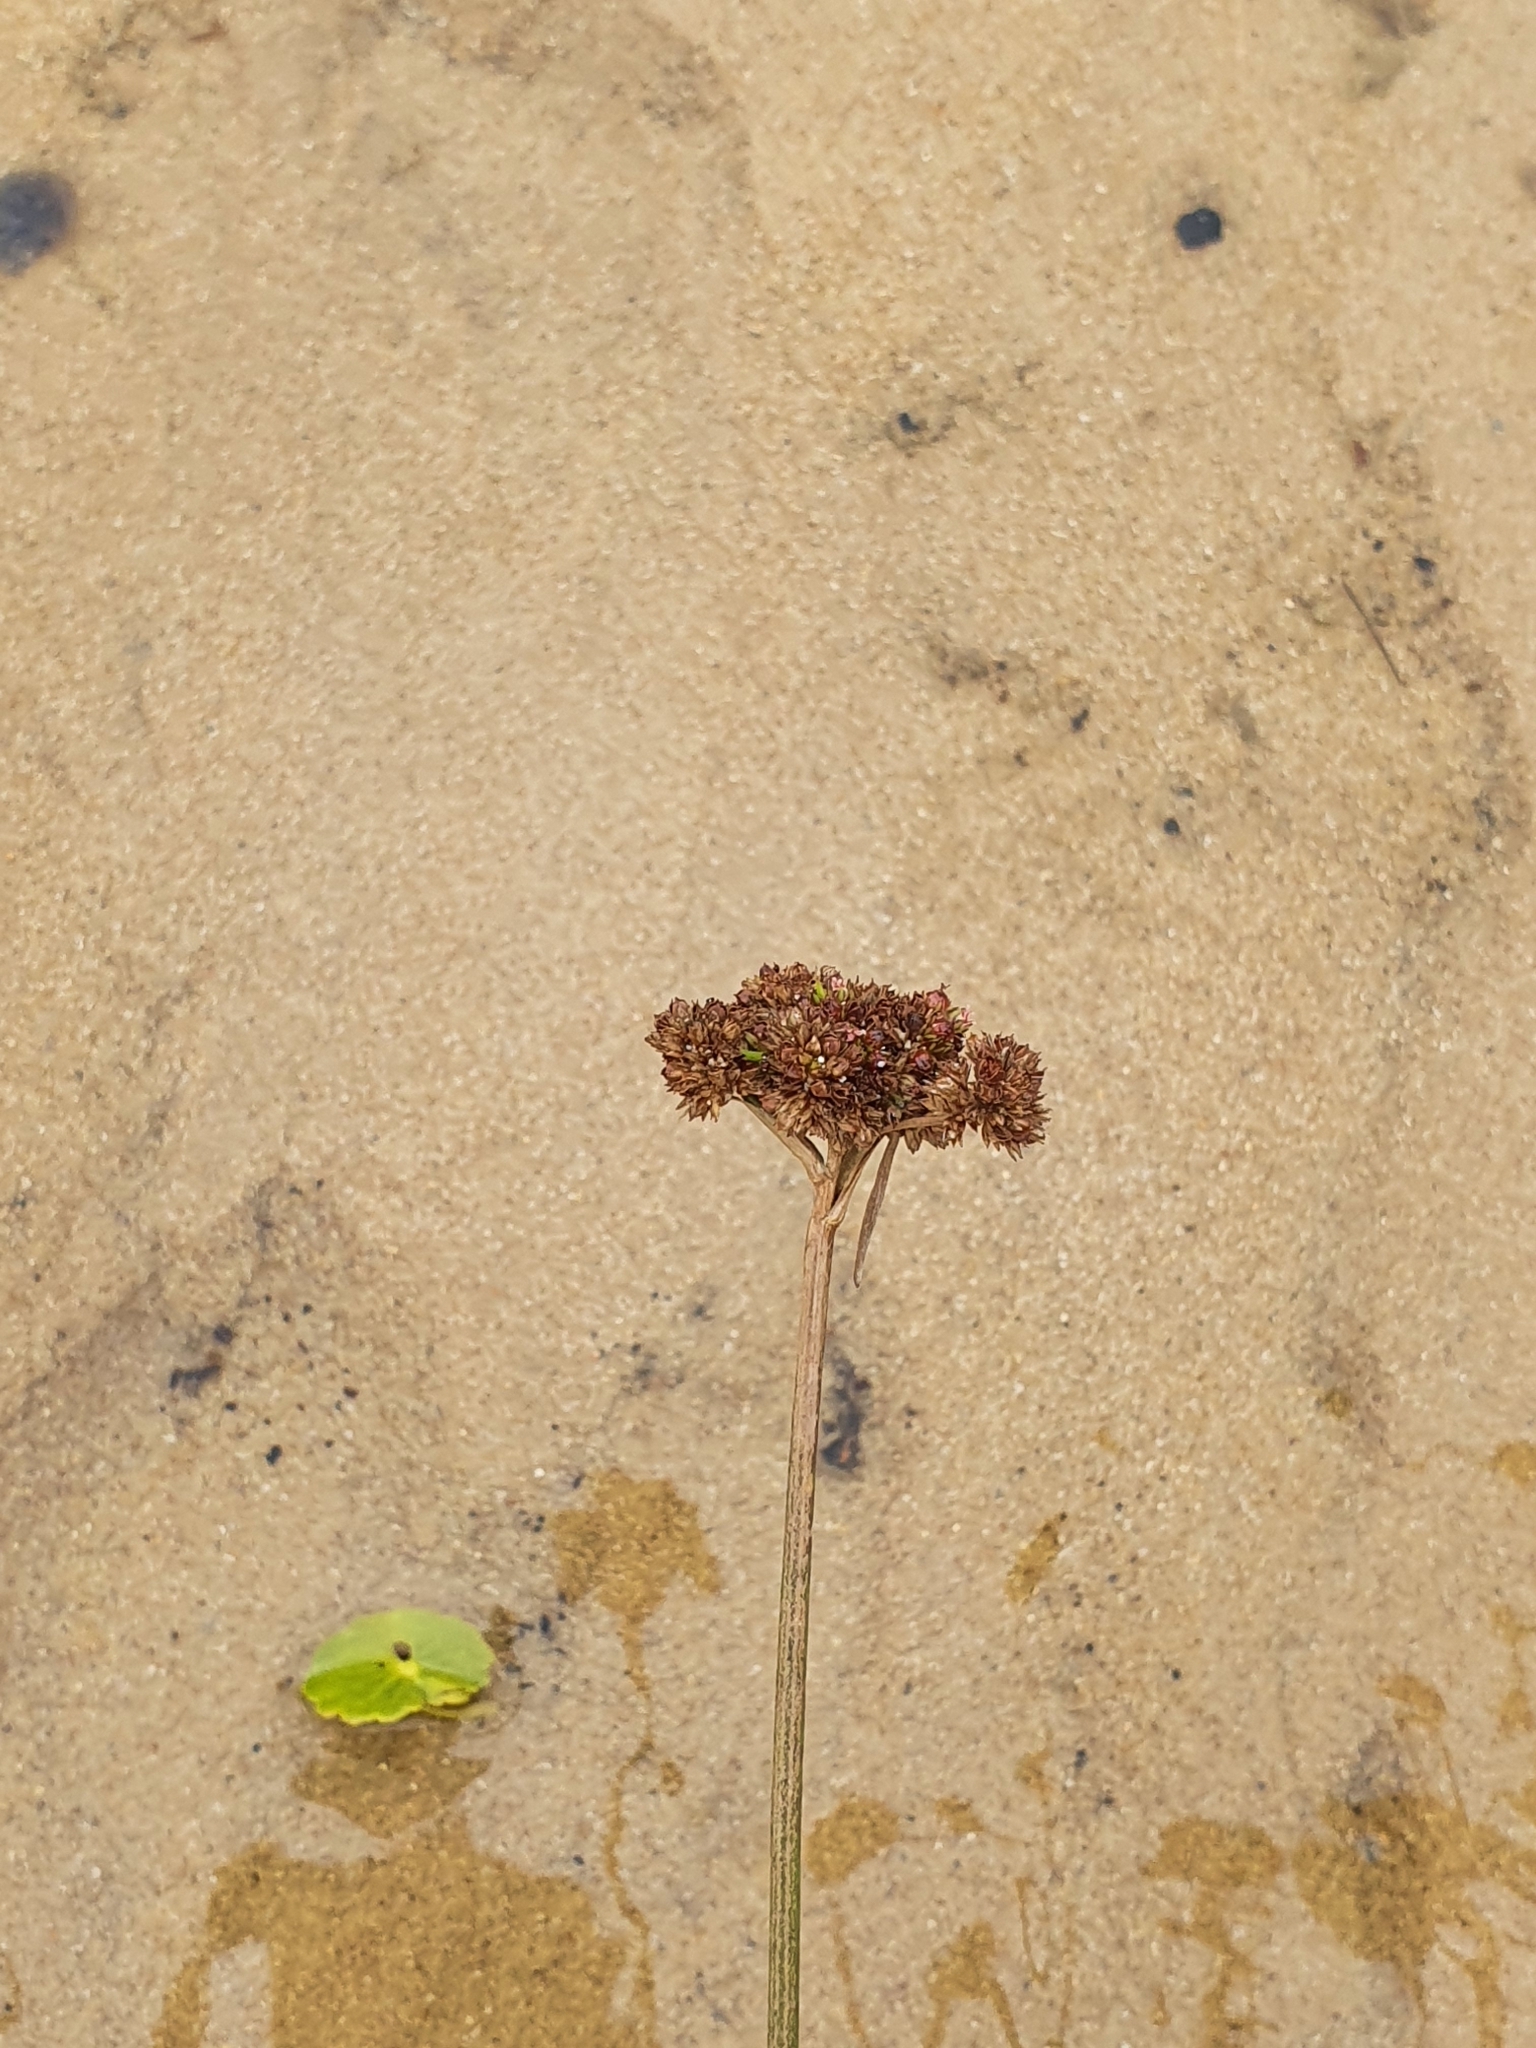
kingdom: Plantae
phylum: Tracheophyta
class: Liliopsida
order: Poales
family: Juncaceae
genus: Juncus
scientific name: Juncus planifolius
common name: Broadleaf rush
